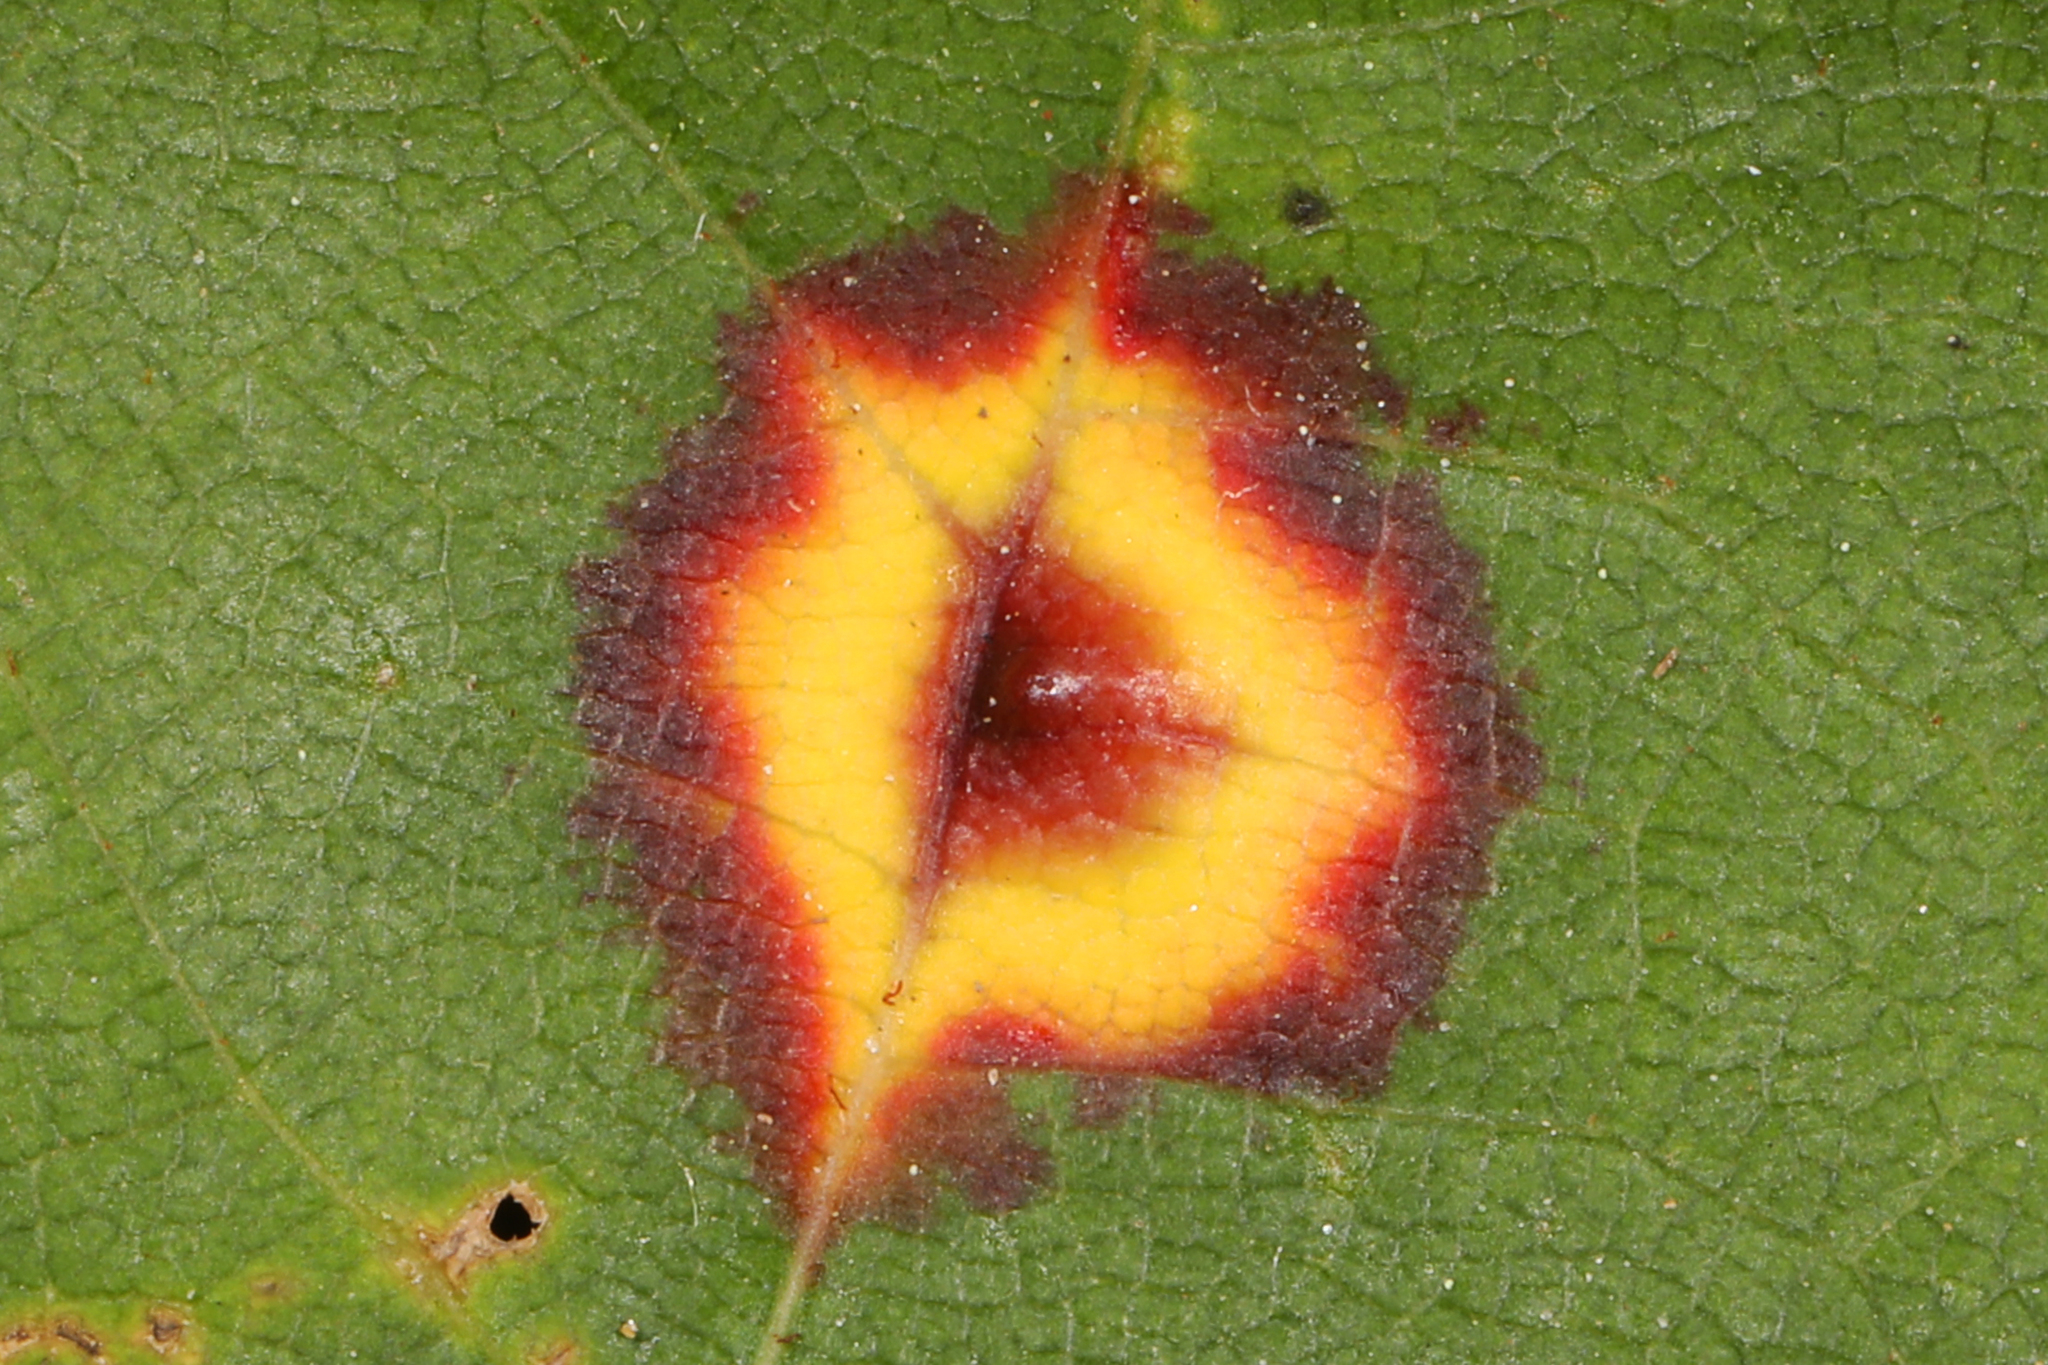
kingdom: Animalia
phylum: Arthropoda
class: Insecta
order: Diptera
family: Cecidomyiidae
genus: Acericecis
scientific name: Acericecis ocellaris
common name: Ocellate gall midge
